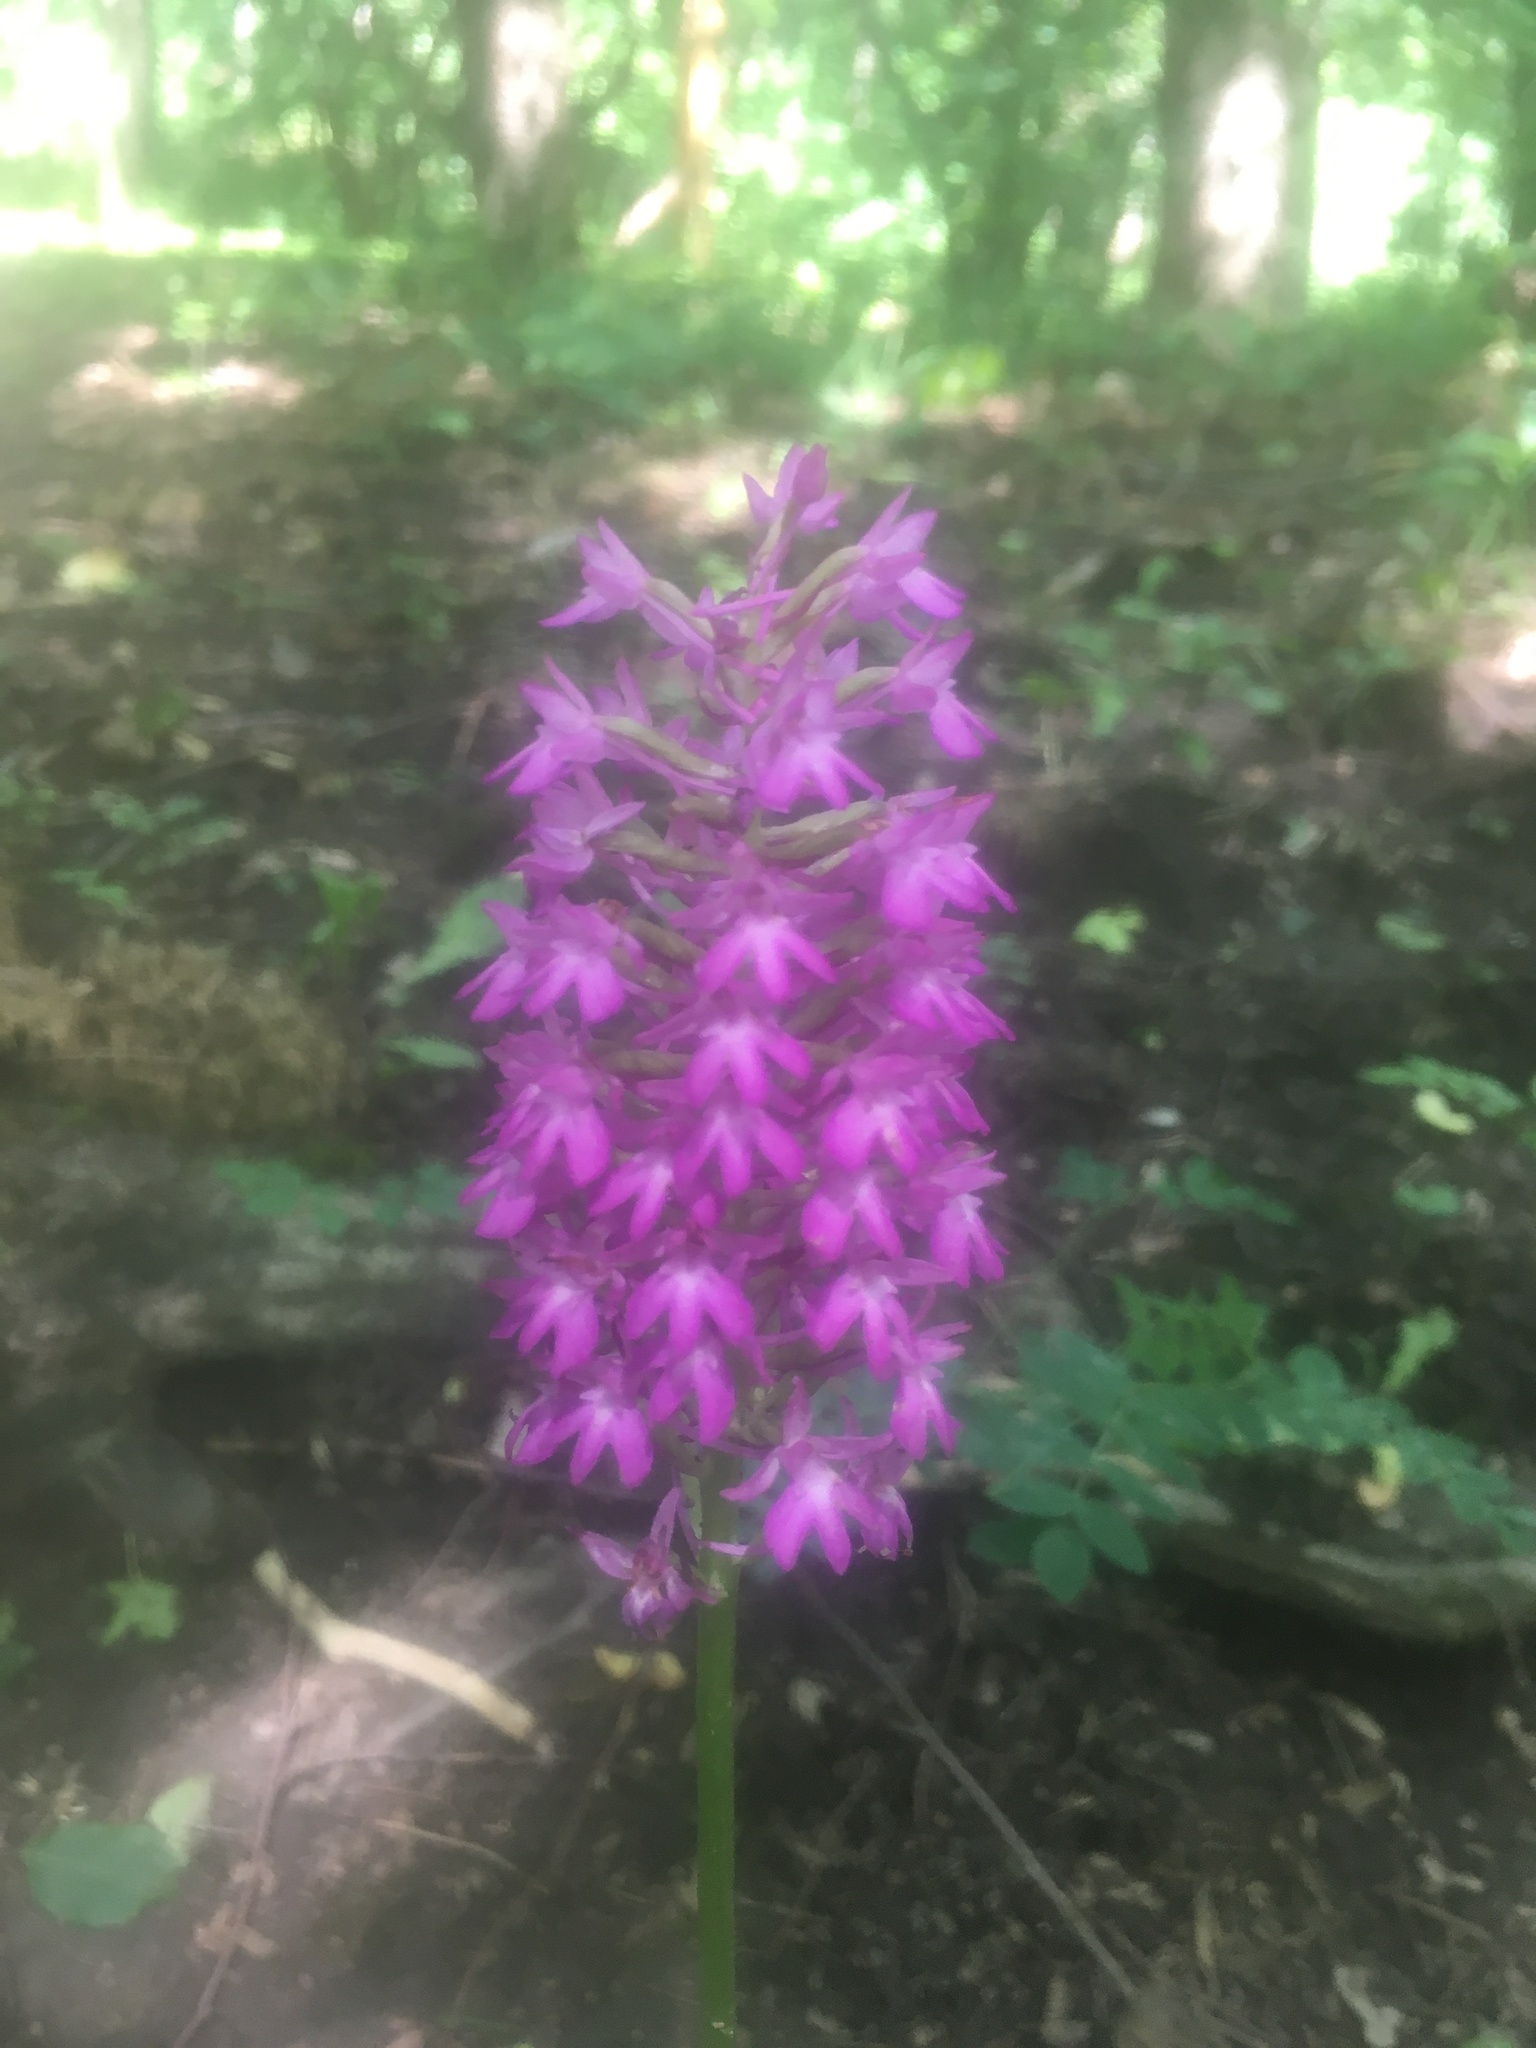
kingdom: Plantae
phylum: Tracheophyta
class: Liliopsida
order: Asparagales
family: Orchidaceae
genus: Anacamptis
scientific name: Anacamptis pyramidalis
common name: Pyramidal orchid
